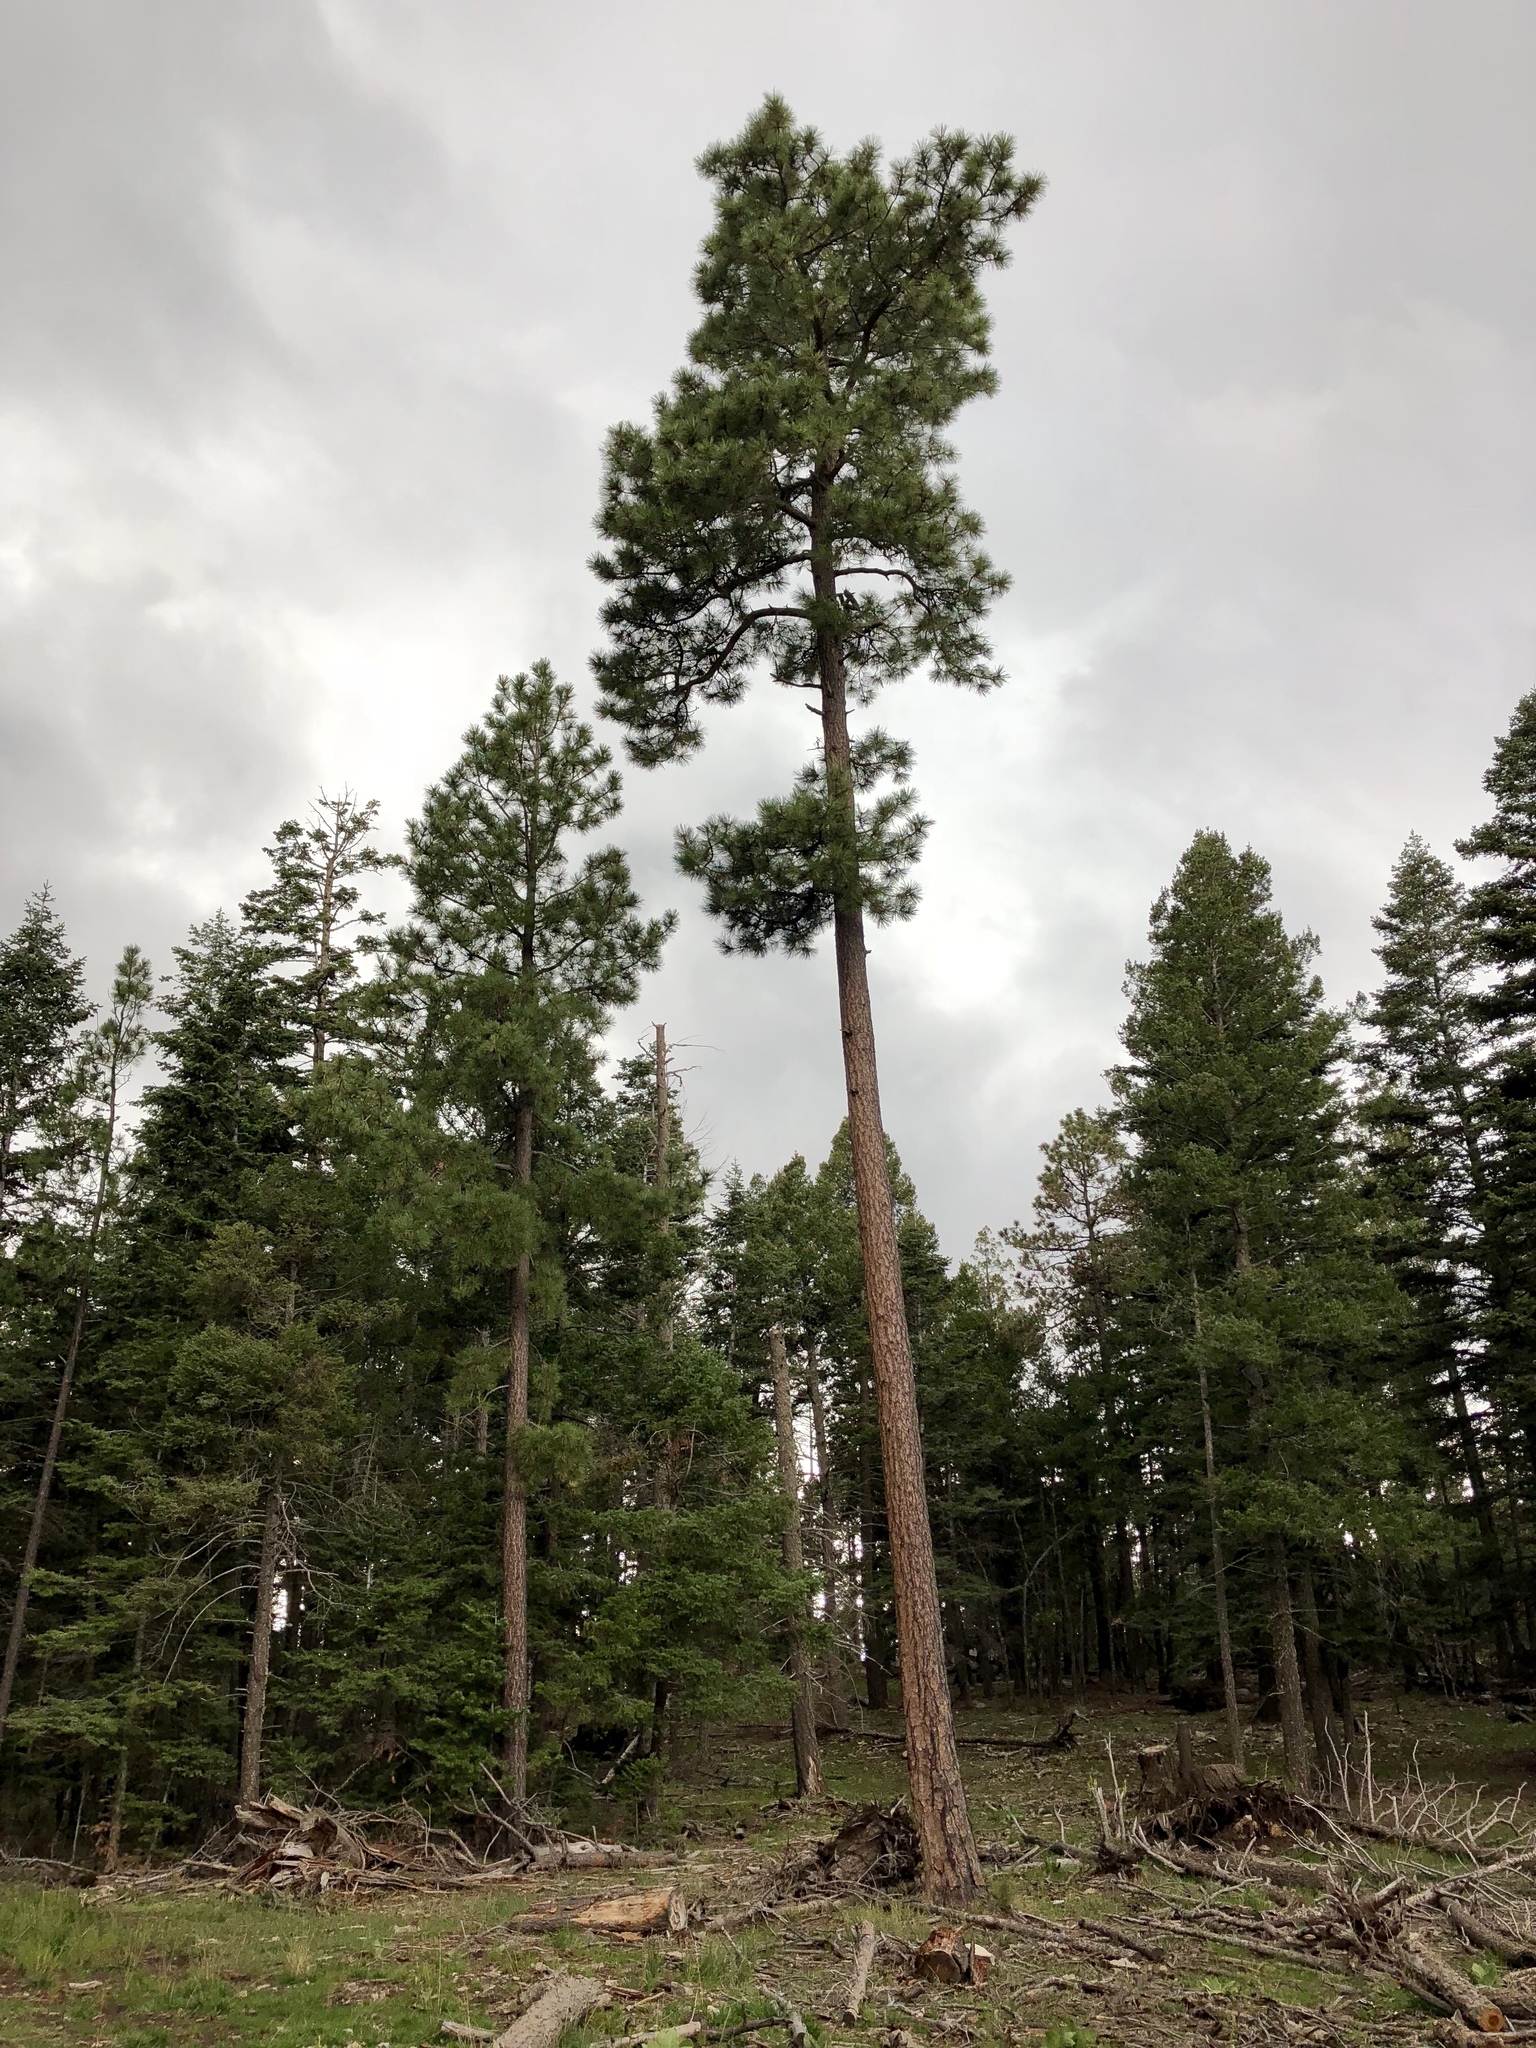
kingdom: Plantae
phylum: Tracheophyta
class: Pinopsida
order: Pinales
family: Pinaceae
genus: Pinus
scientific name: Pinus ponderosa
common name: Western yellow-pine
